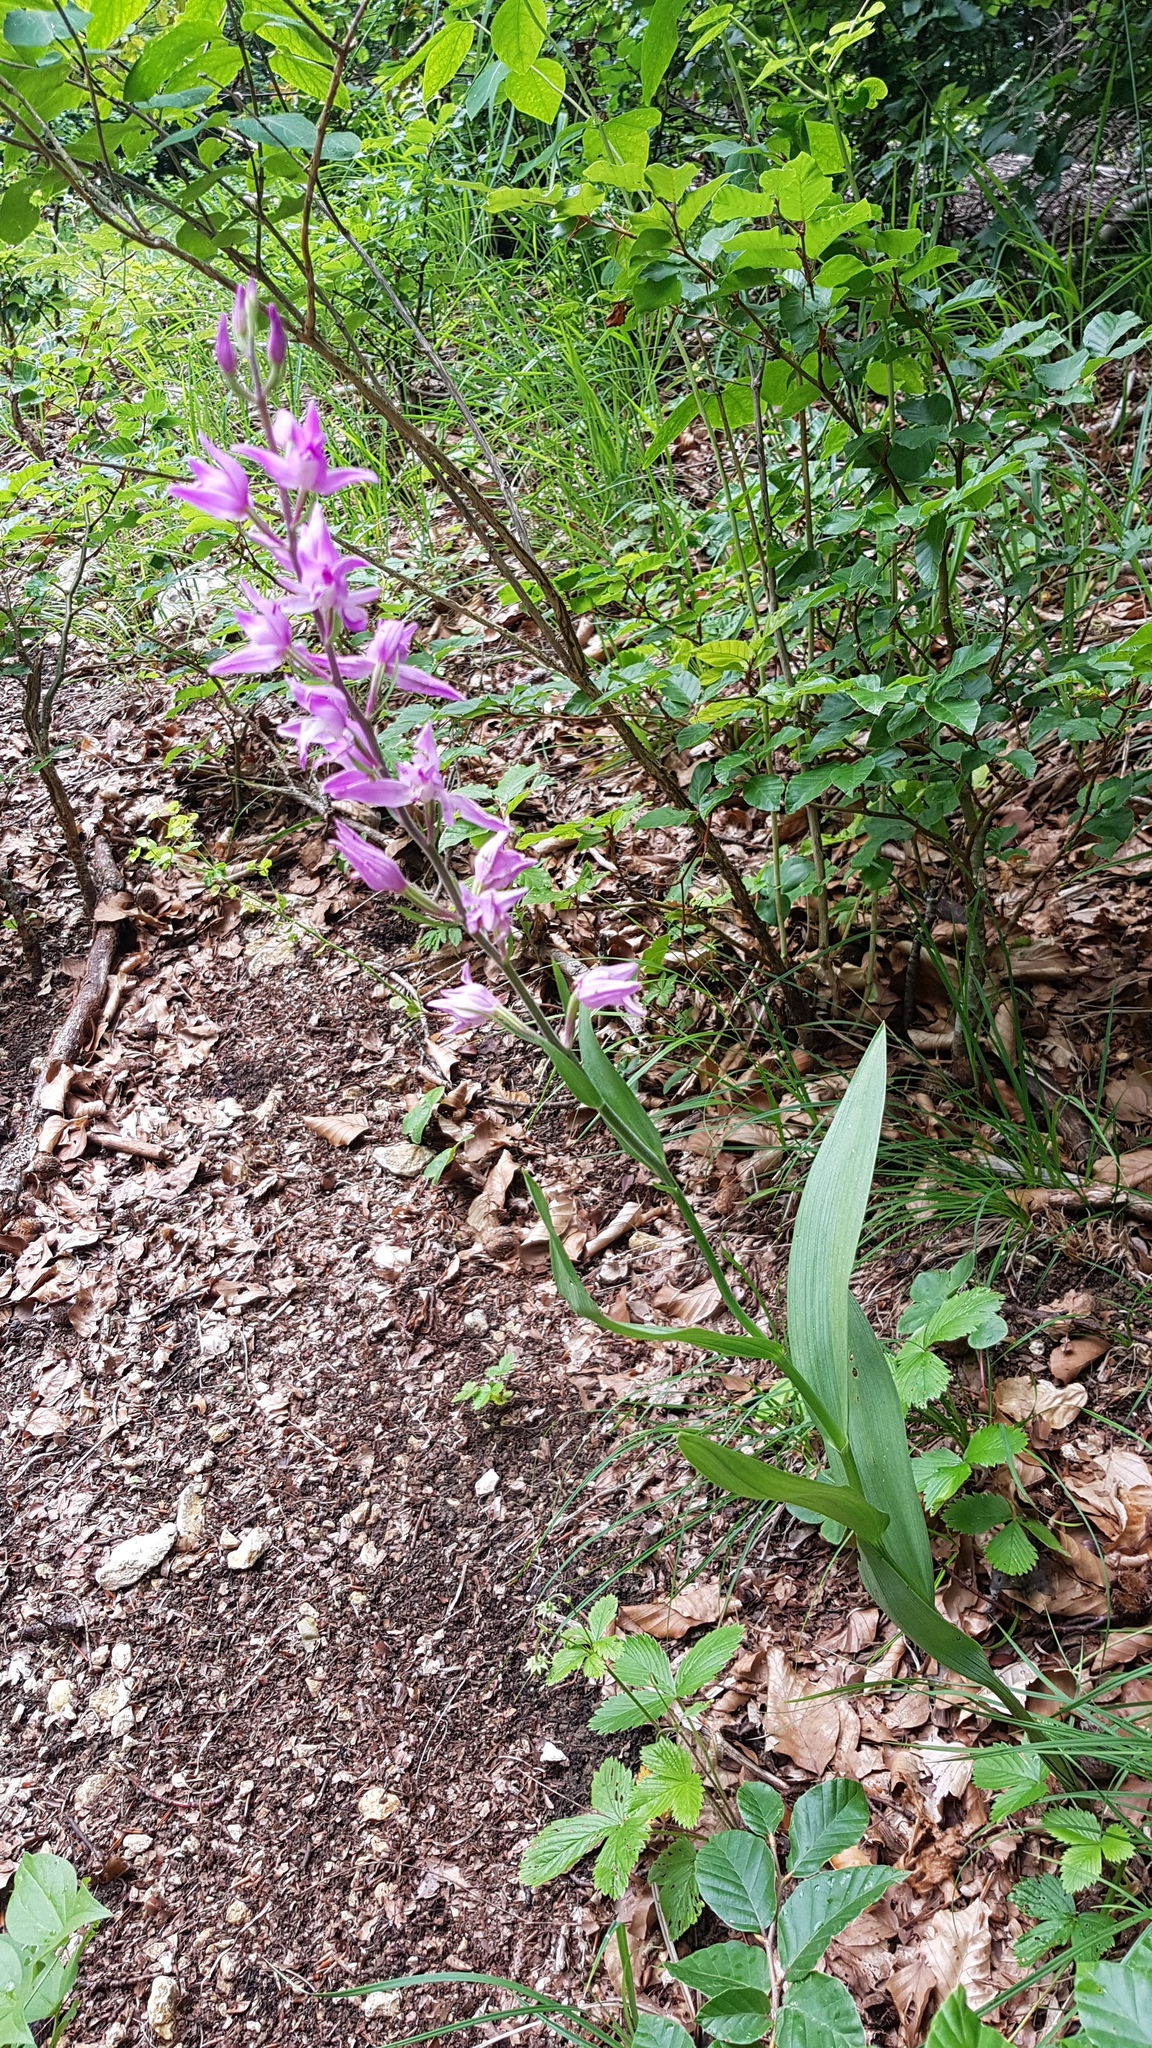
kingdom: Plantae
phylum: Tracheophyta
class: Liliopsida
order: Asparagales
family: Orchidaceae
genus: Cephalanthera
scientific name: Cephalanthera rubra
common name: Red helleborine
